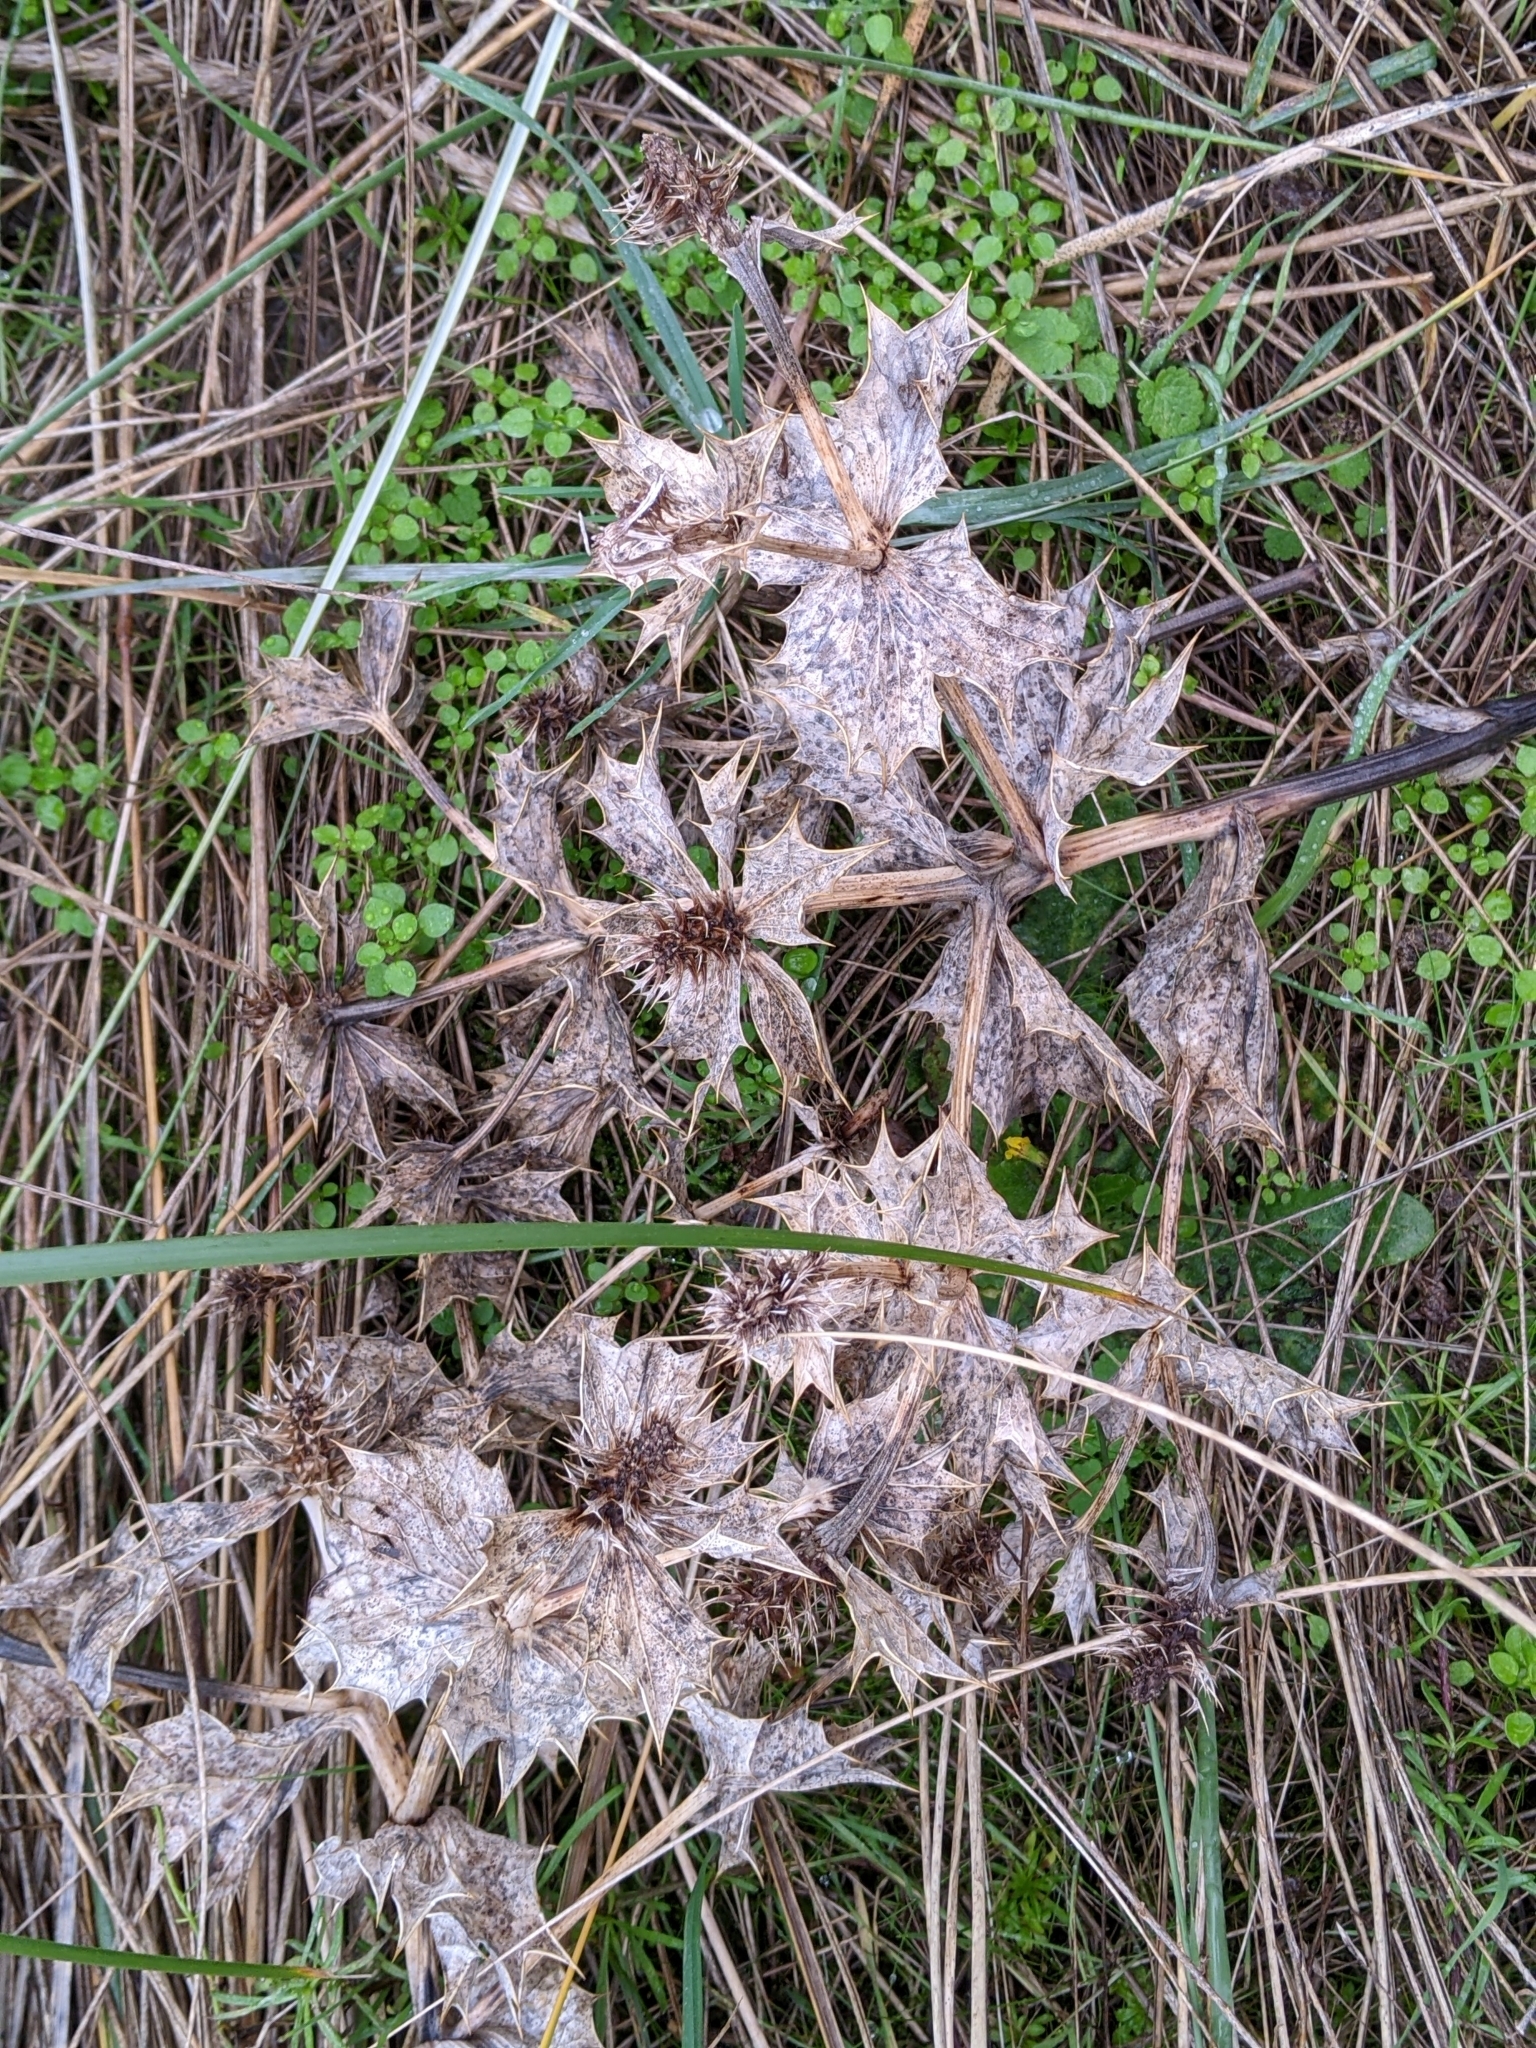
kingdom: Plantae
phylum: Tracheophyta
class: Magnoliopsida
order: Apiales
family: Apiaceae
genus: Eryngium
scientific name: Eryngium maritimum
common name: Sea-holly
